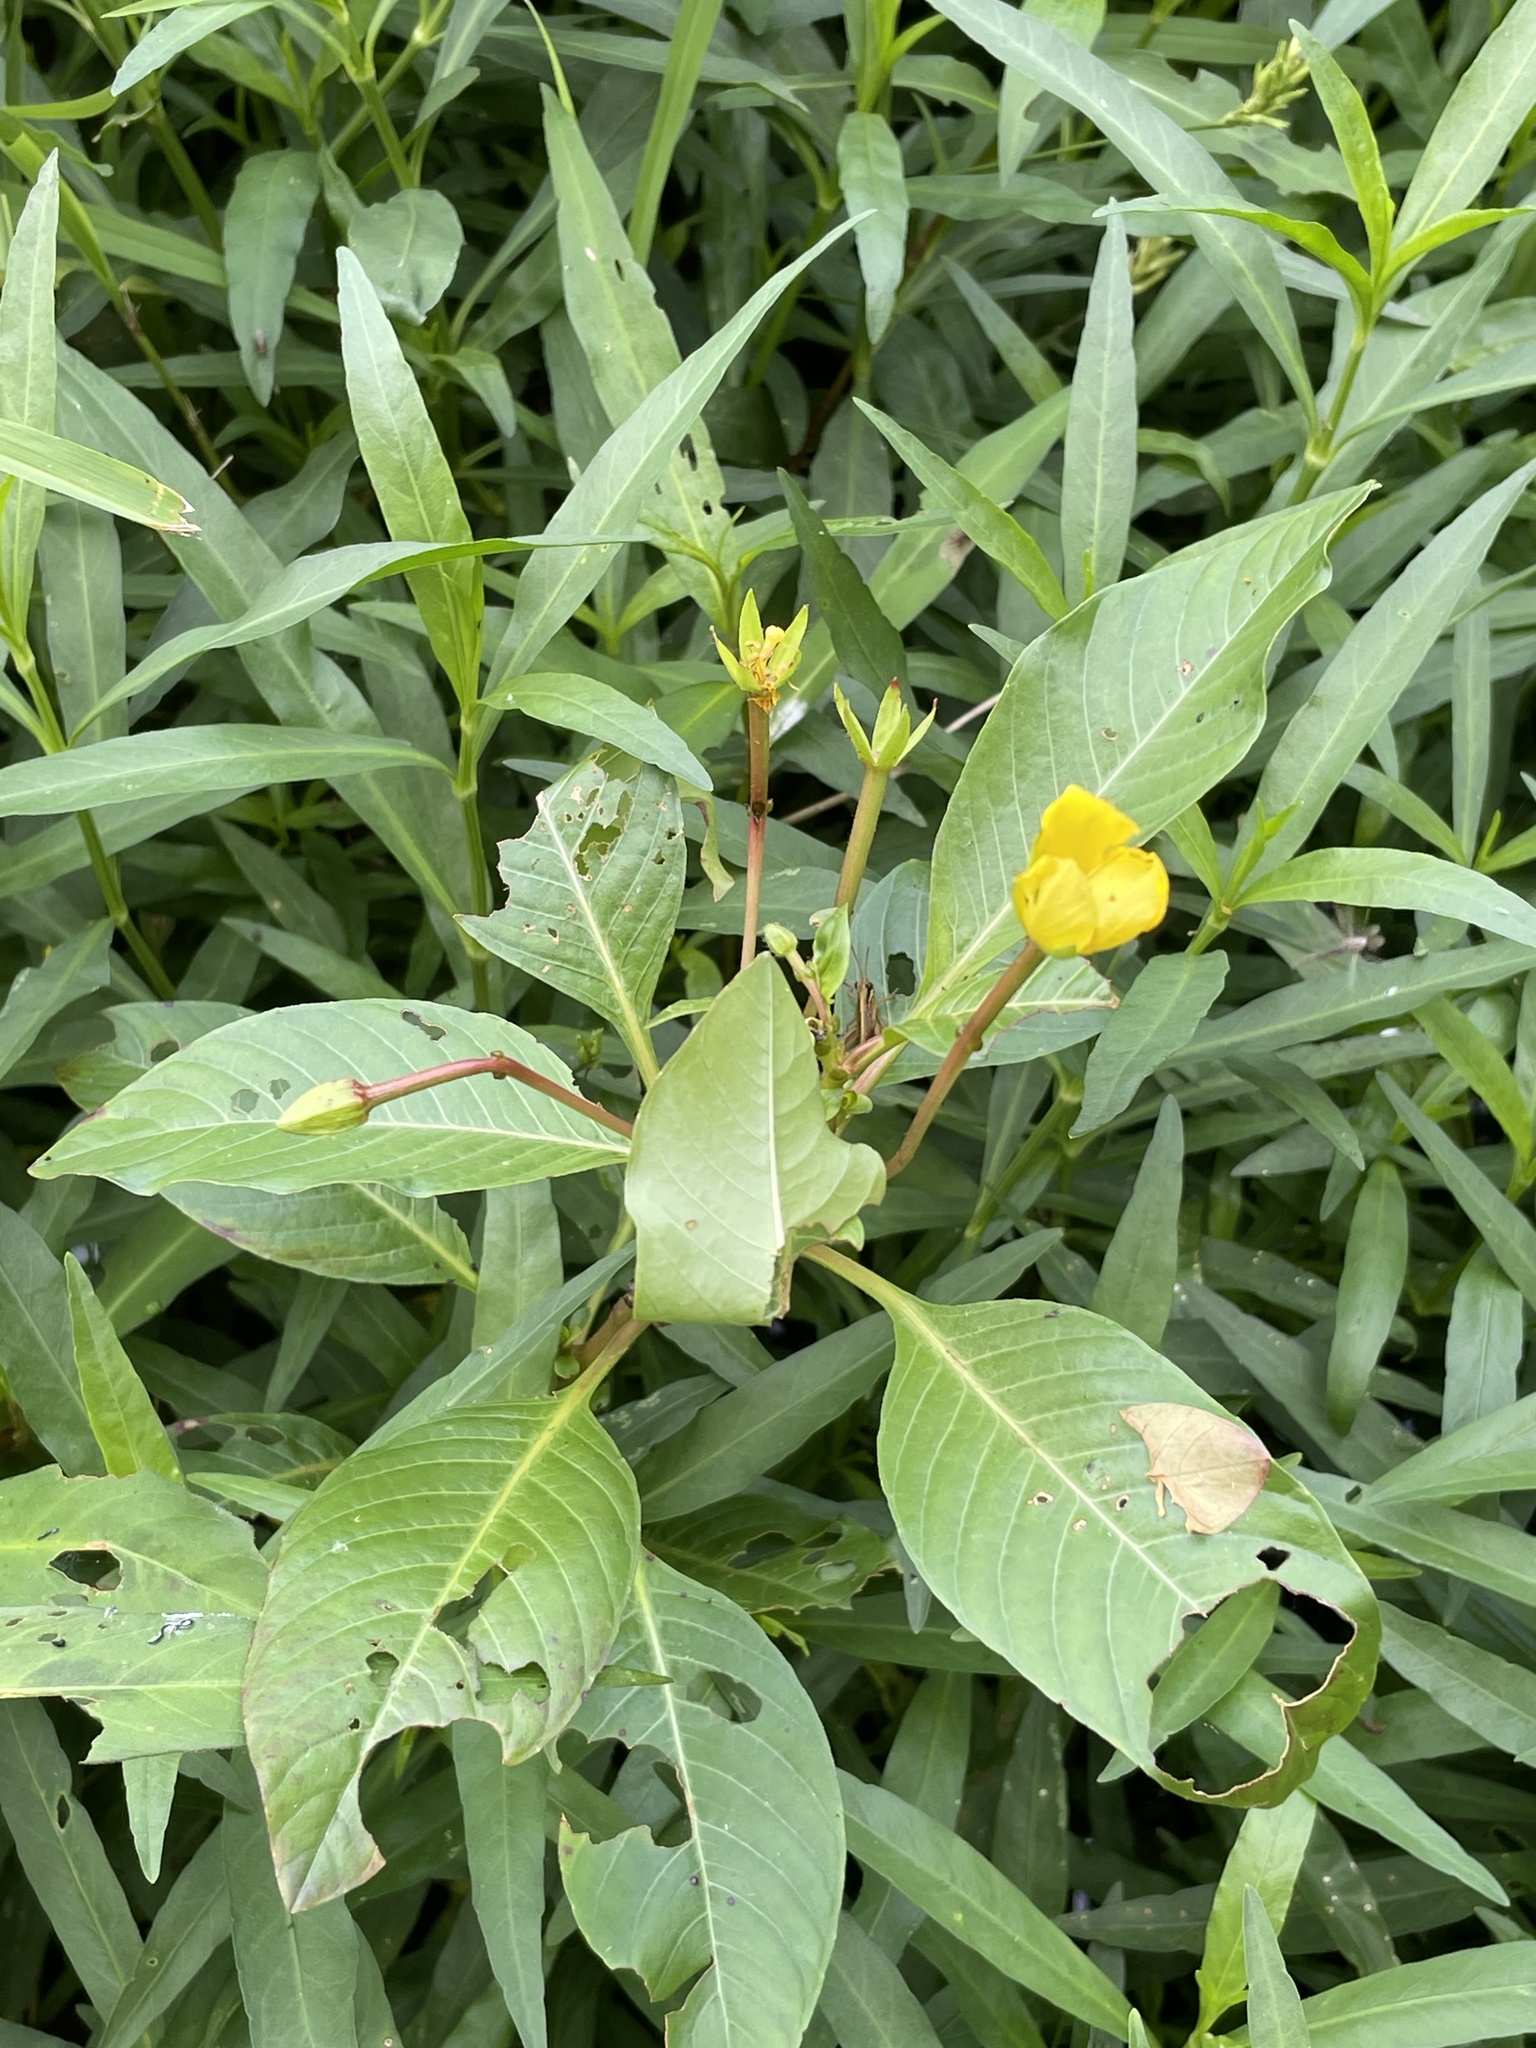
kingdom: Plantae
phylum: Tracheophyta
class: Magnoliopsida
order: Myrtales
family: Onagraceae
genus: Ludwigia
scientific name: Ludwigia peploides
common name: Floating primrose-willow
